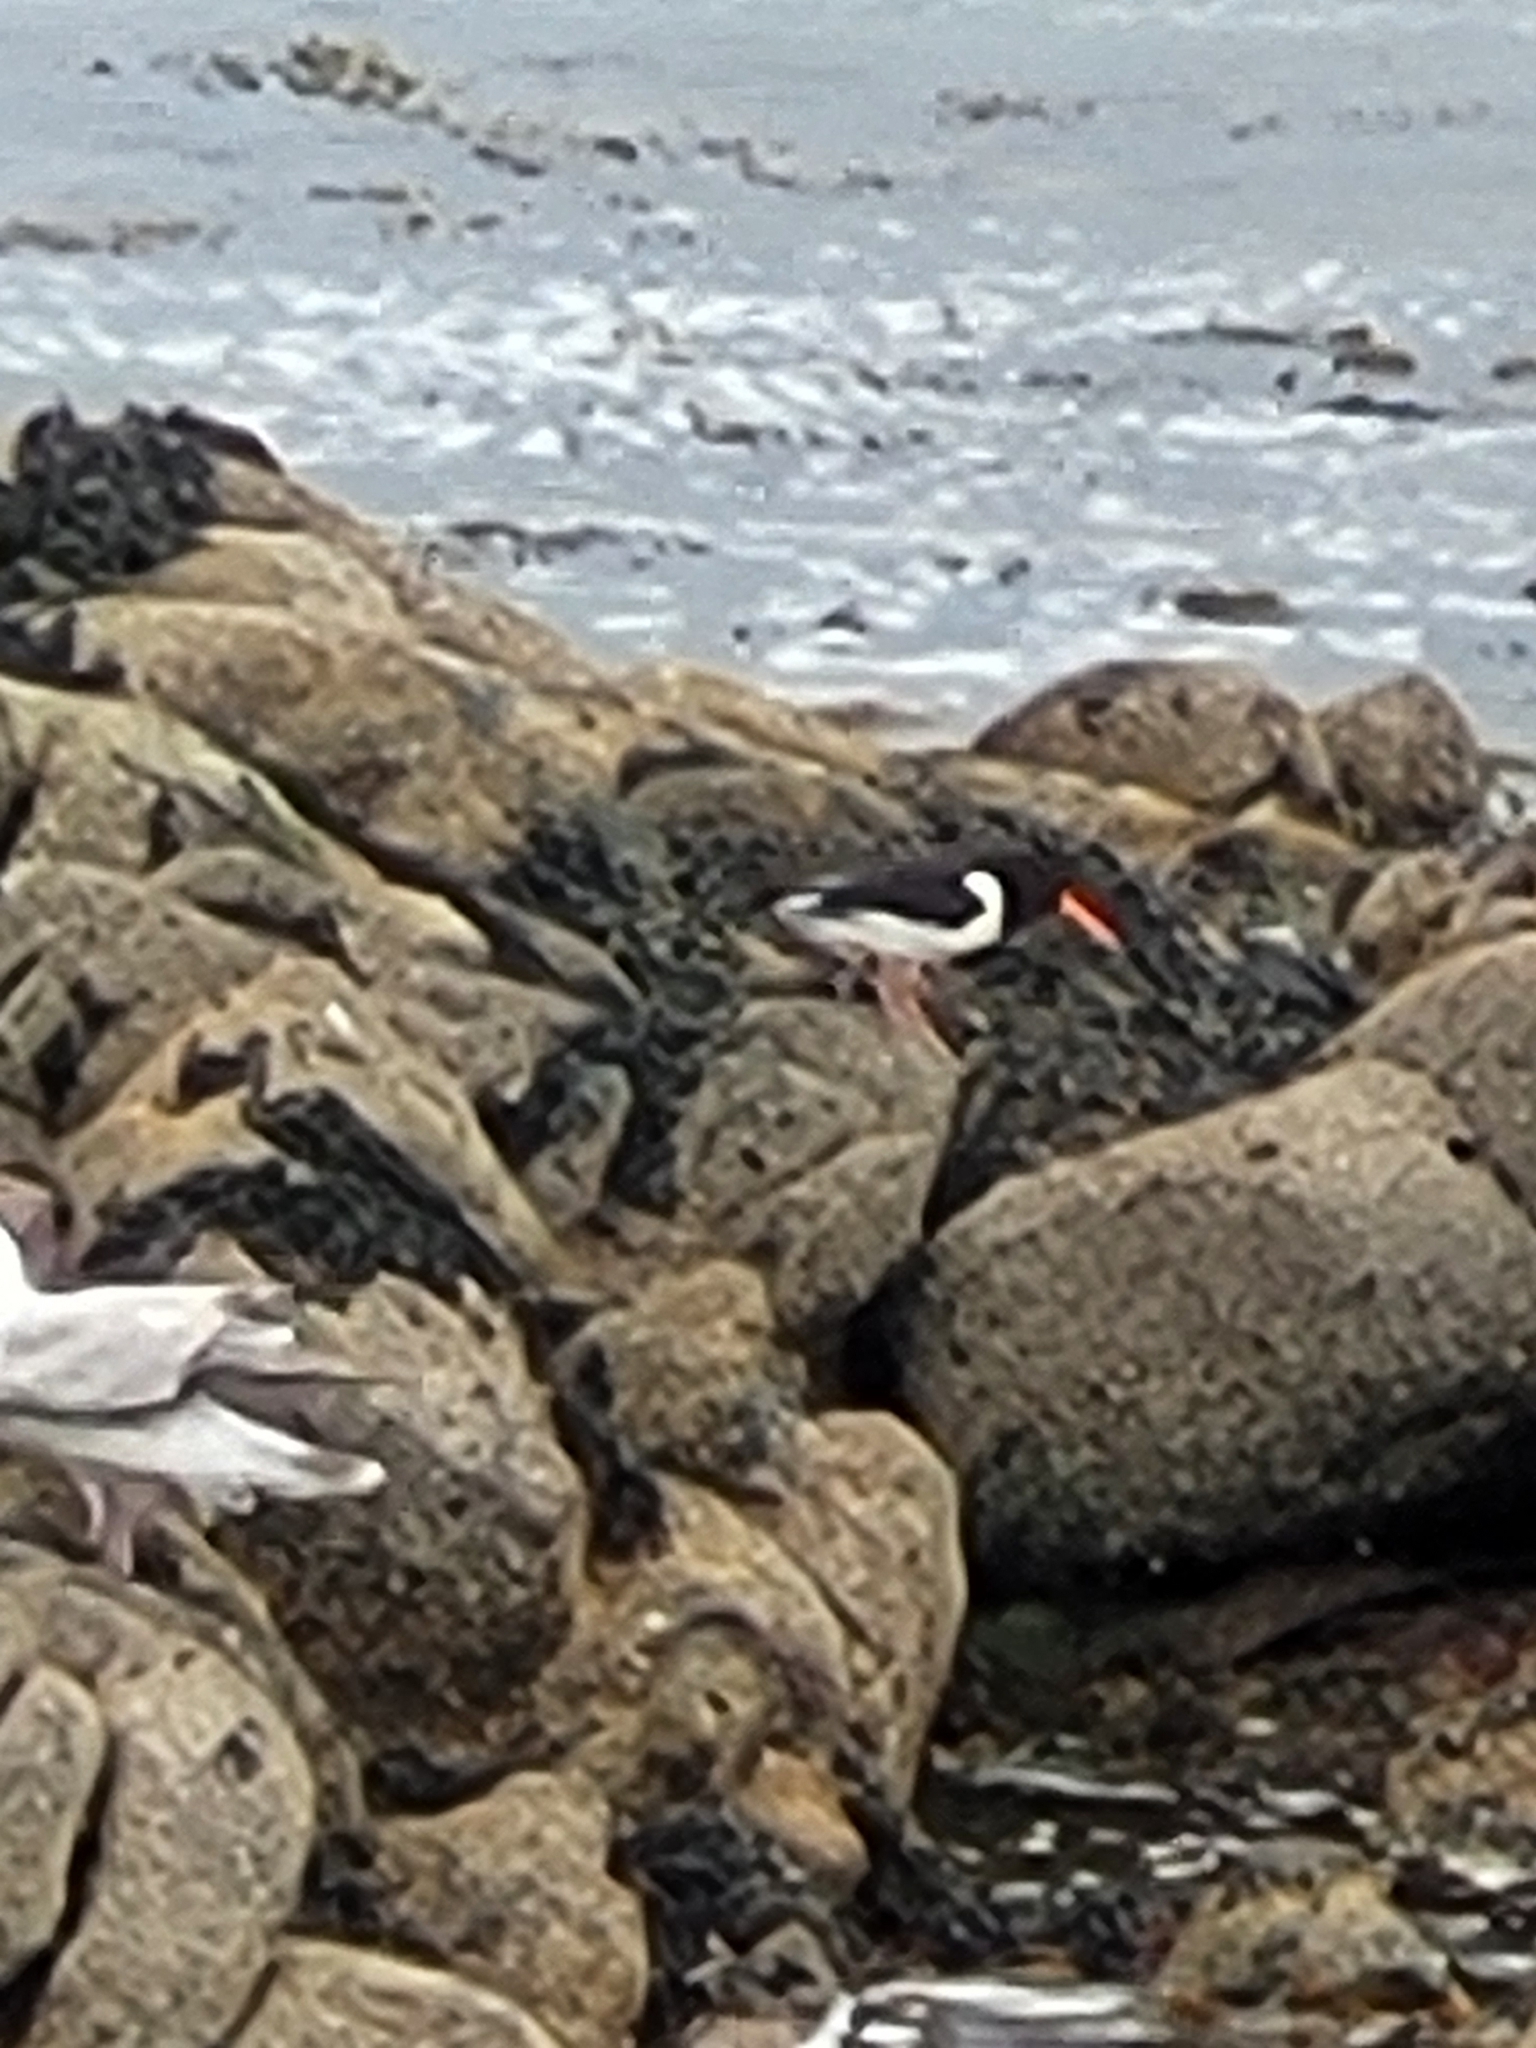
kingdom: Animalia
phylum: Chordata
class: Aves
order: Charadriiformes
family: Haematopodidae
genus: Haematopus
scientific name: Haematopus ostralegus
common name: Eurasian oystercatcher
